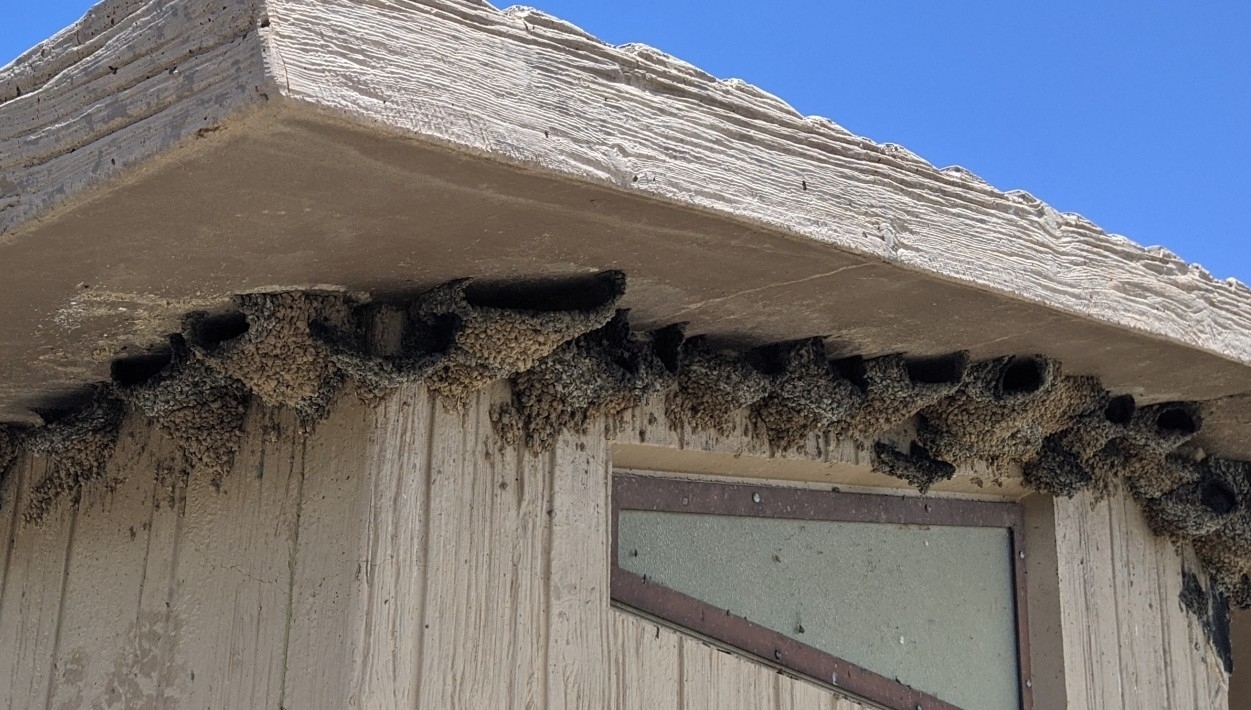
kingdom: Animalia
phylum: Chordata
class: Aves
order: Passeriformes
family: Hirundinidae
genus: Petrochelidon
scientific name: Petrochelidon pyrrhonota
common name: American cliff swallow
